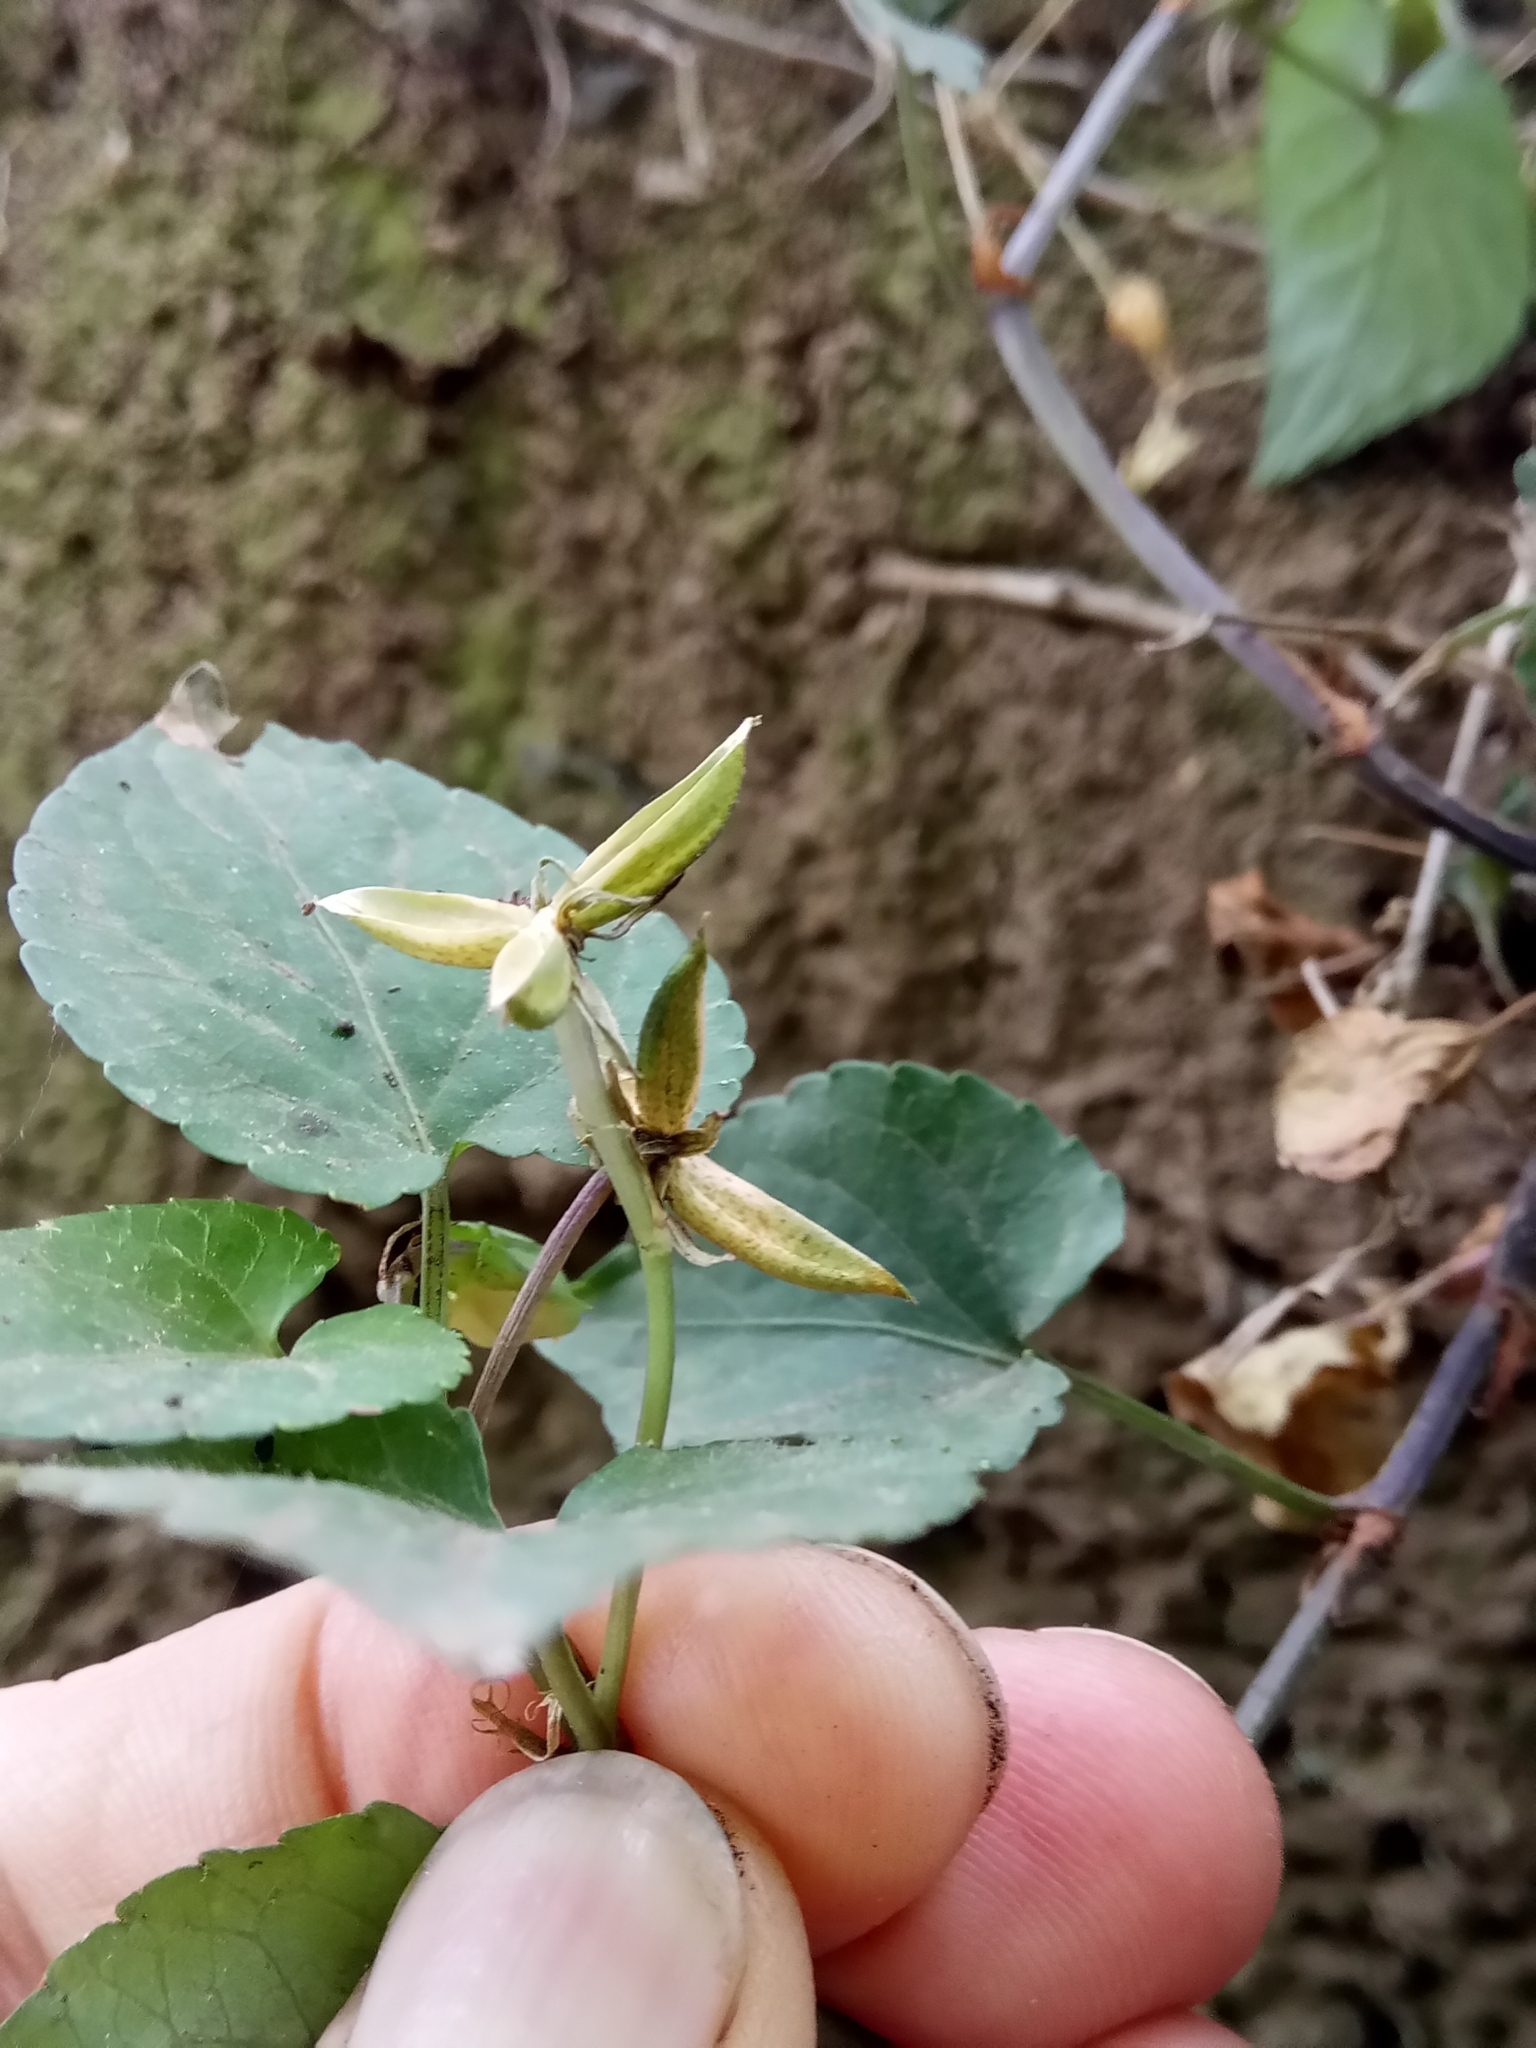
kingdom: Plantae
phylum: Tracheophyta
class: Magnoliopsida
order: Malpighiales
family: Violaceae
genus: Viola
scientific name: Viola odorata
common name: Sweet violet
